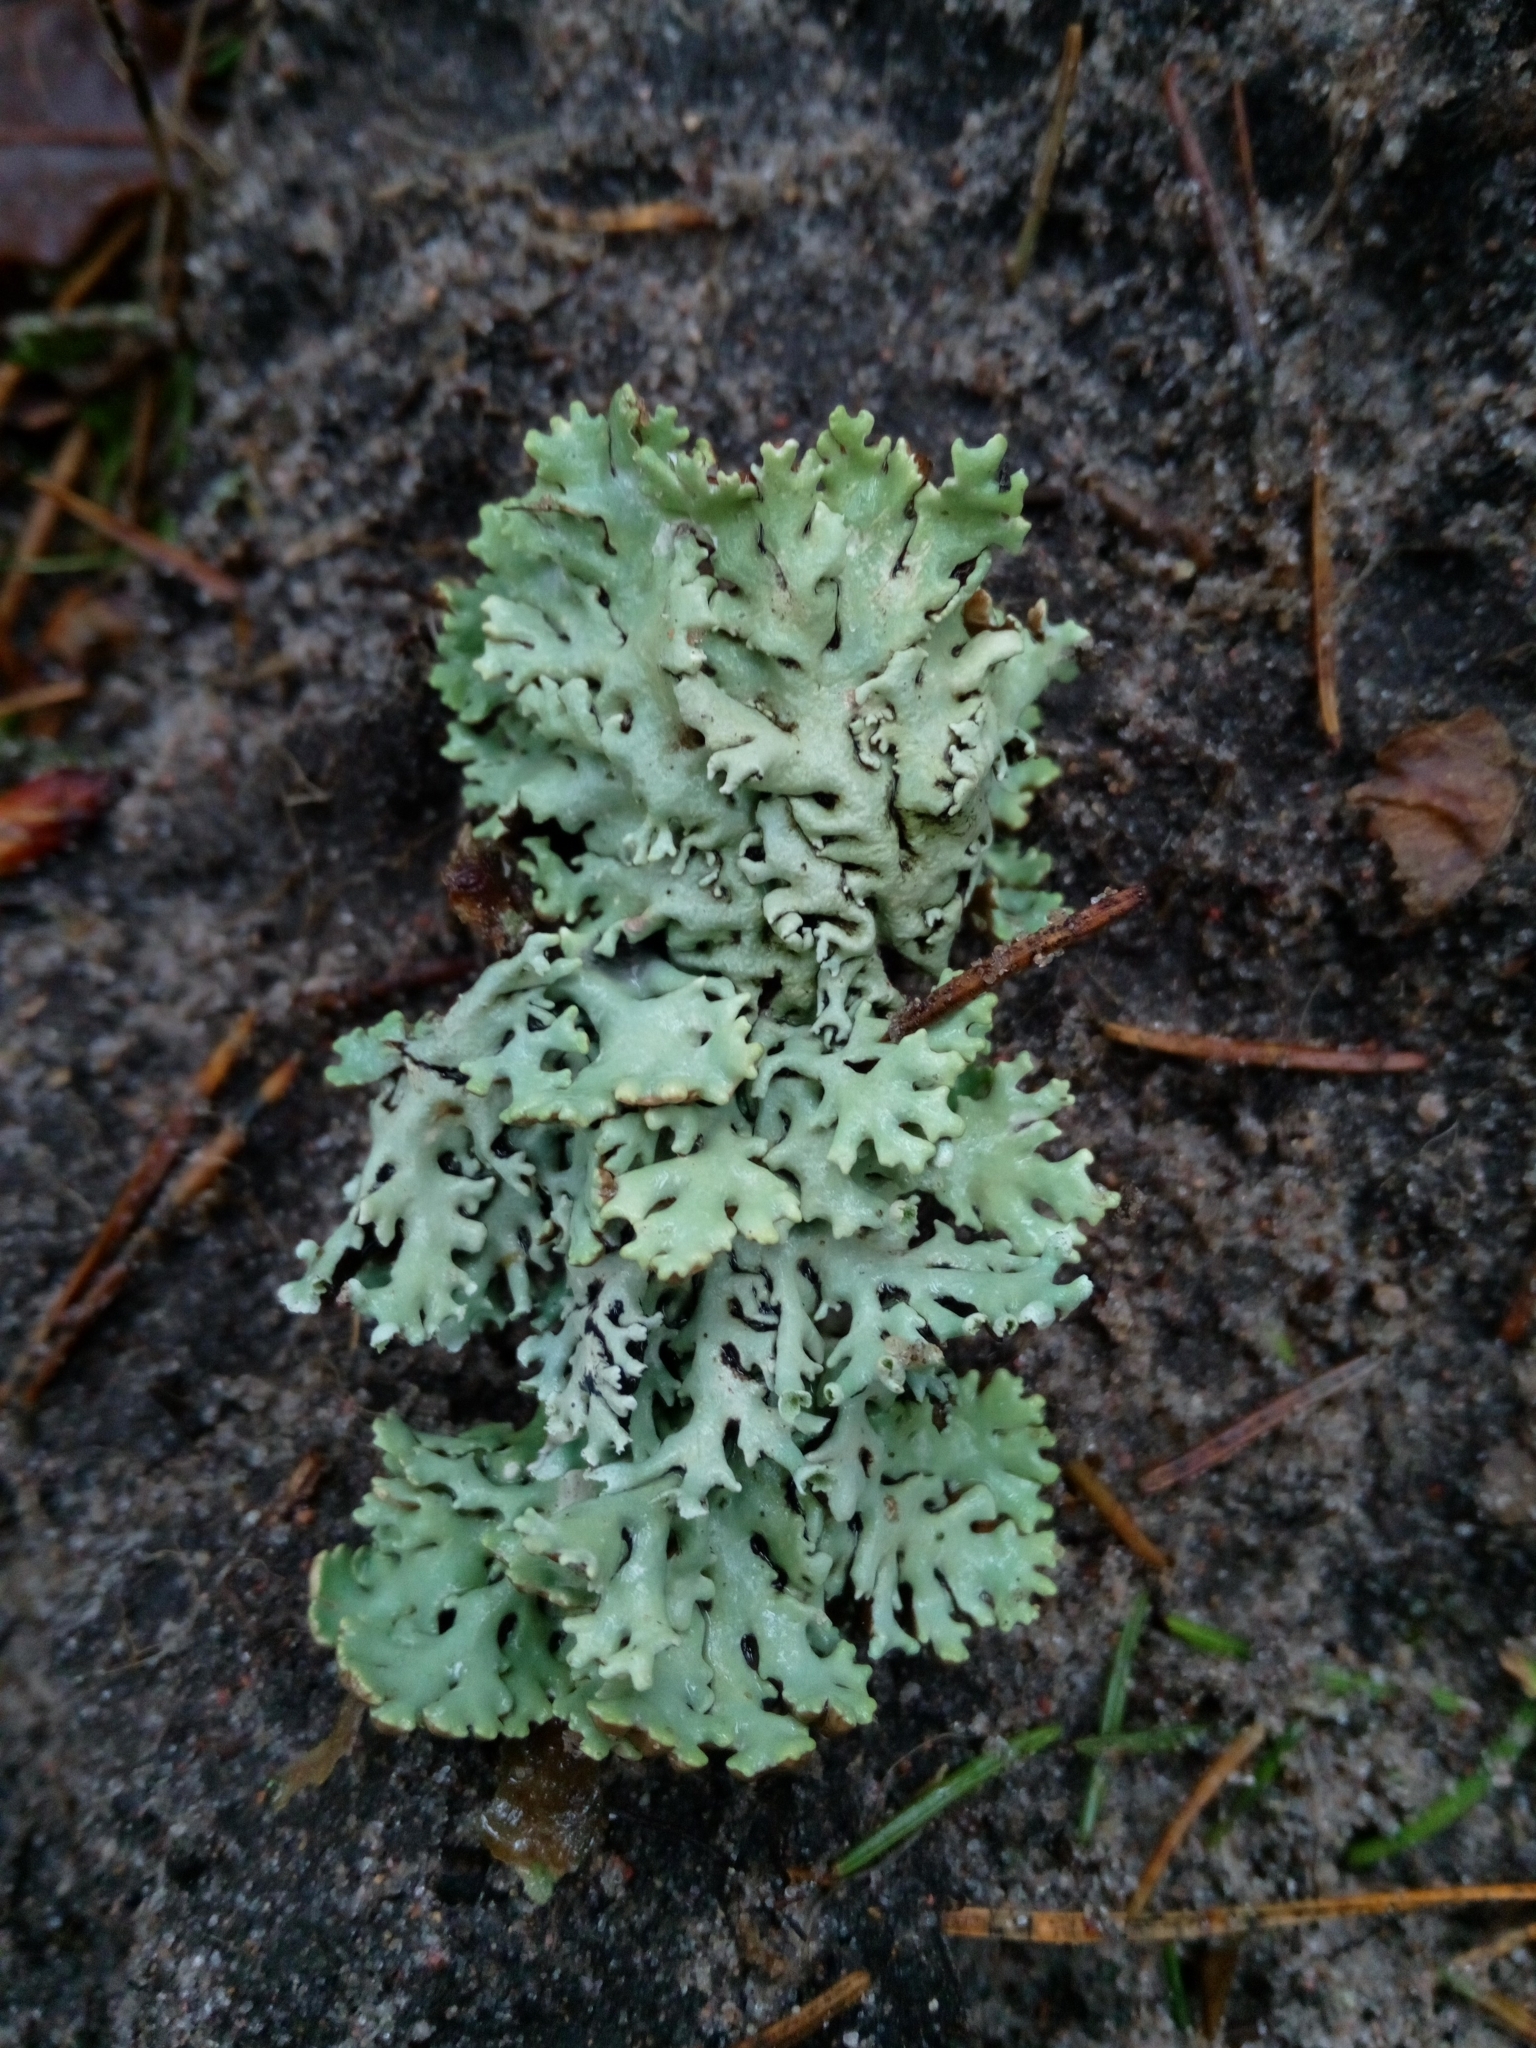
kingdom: Fungi
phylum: Ascomycota
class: Lecanoromycetes
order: Lecanorales
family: Parmeliaceae
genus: Hypogymnia
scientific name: Hypogymnia physodes
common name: Dark crottle
